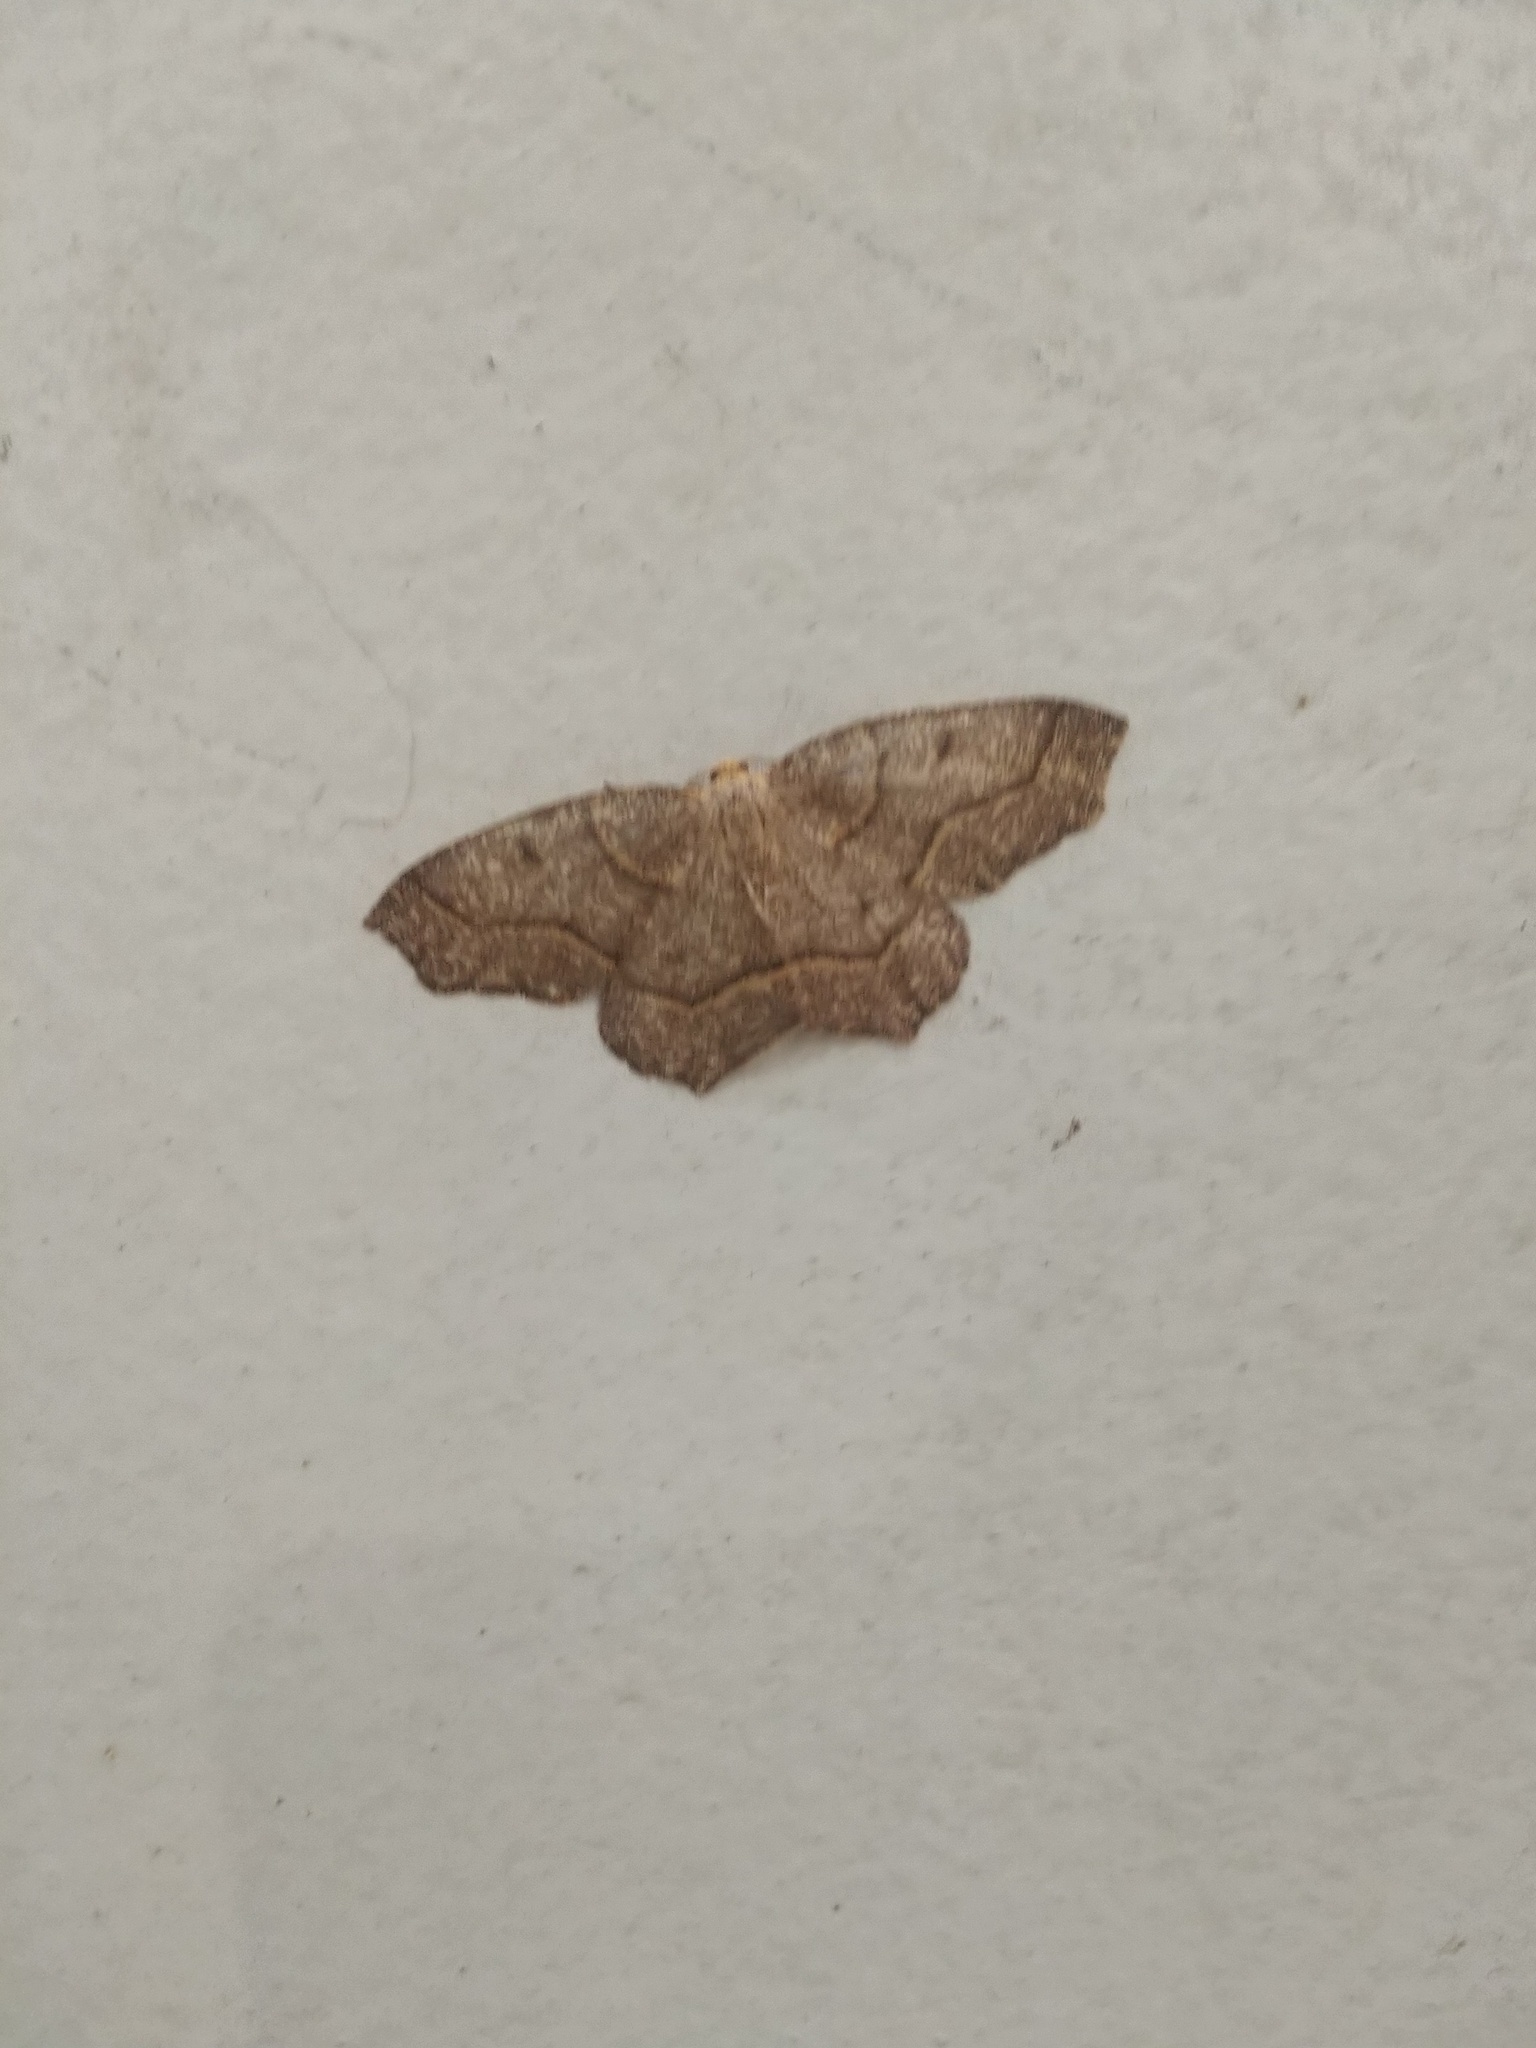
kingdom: Animalia
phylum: Arthropoda
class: Insecta
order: Lepidoptera
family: Geometridae
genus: Lambdina
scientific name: Lambdina fiscellaria
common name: Hemlock looper
